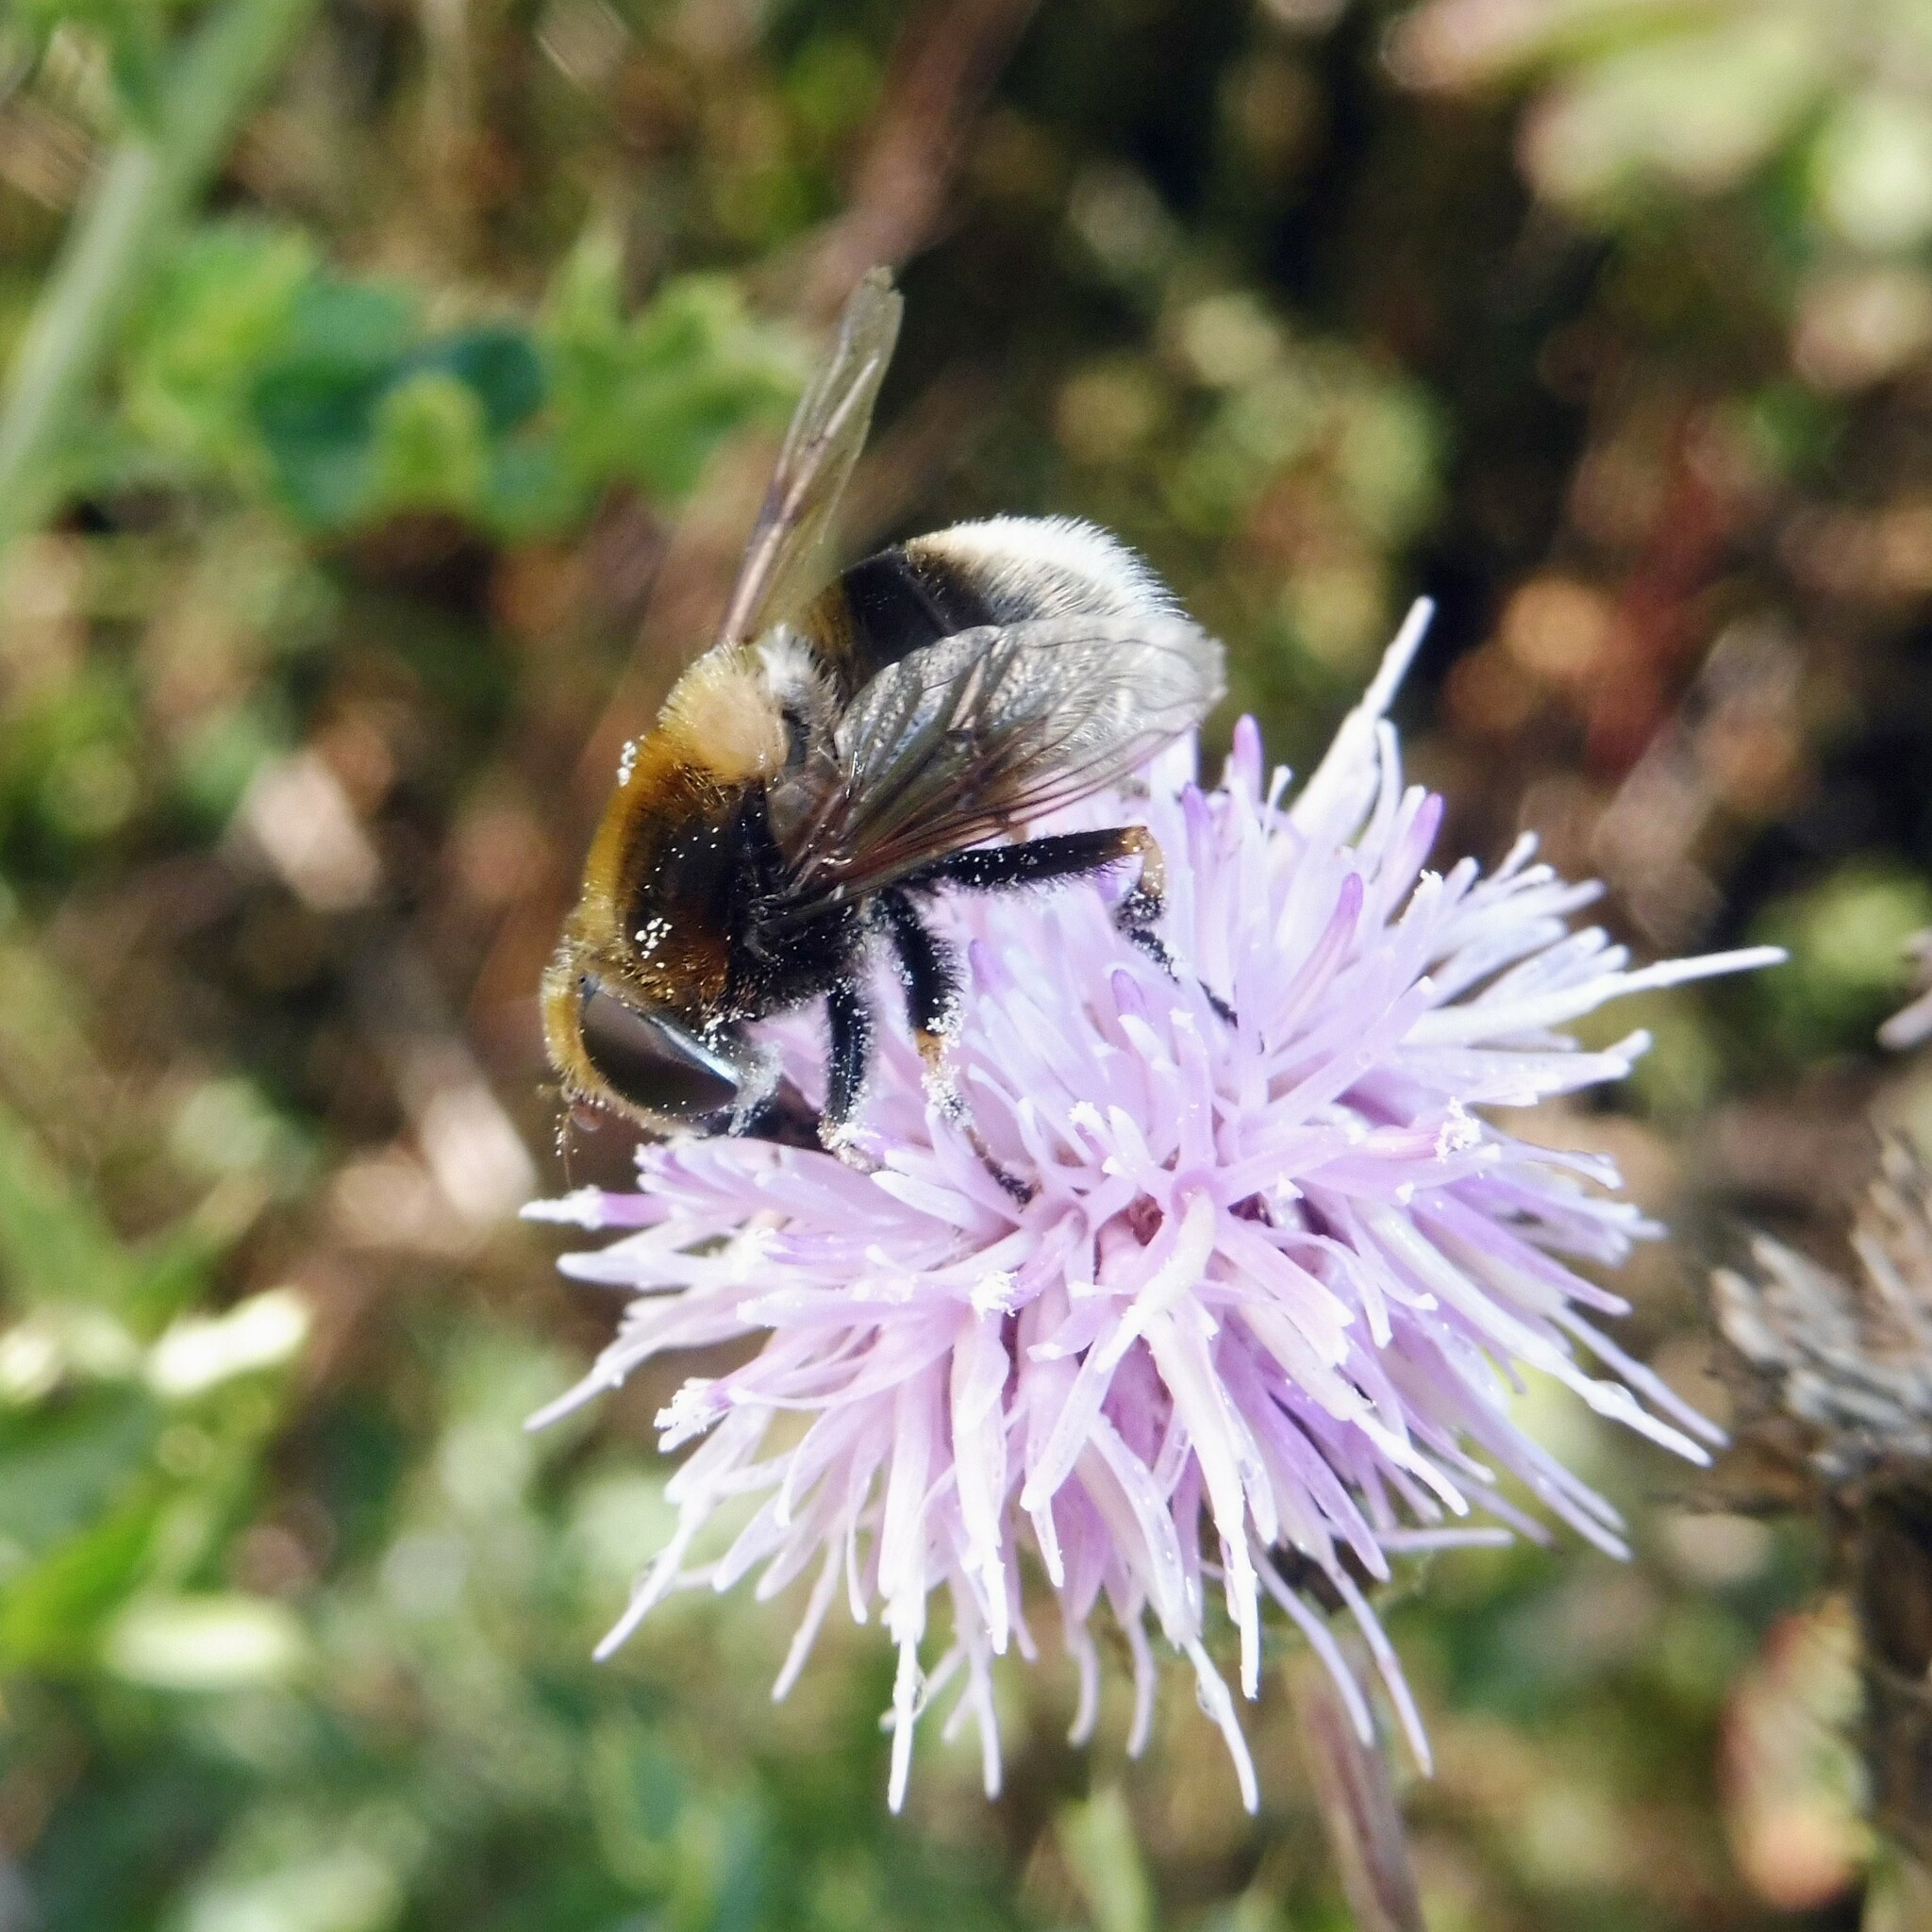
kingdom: Animalia
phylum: Arthropoda
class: Insecta
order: Diptera
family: Syrphidae
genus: Eristalis
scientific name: Eristalis intricaria
